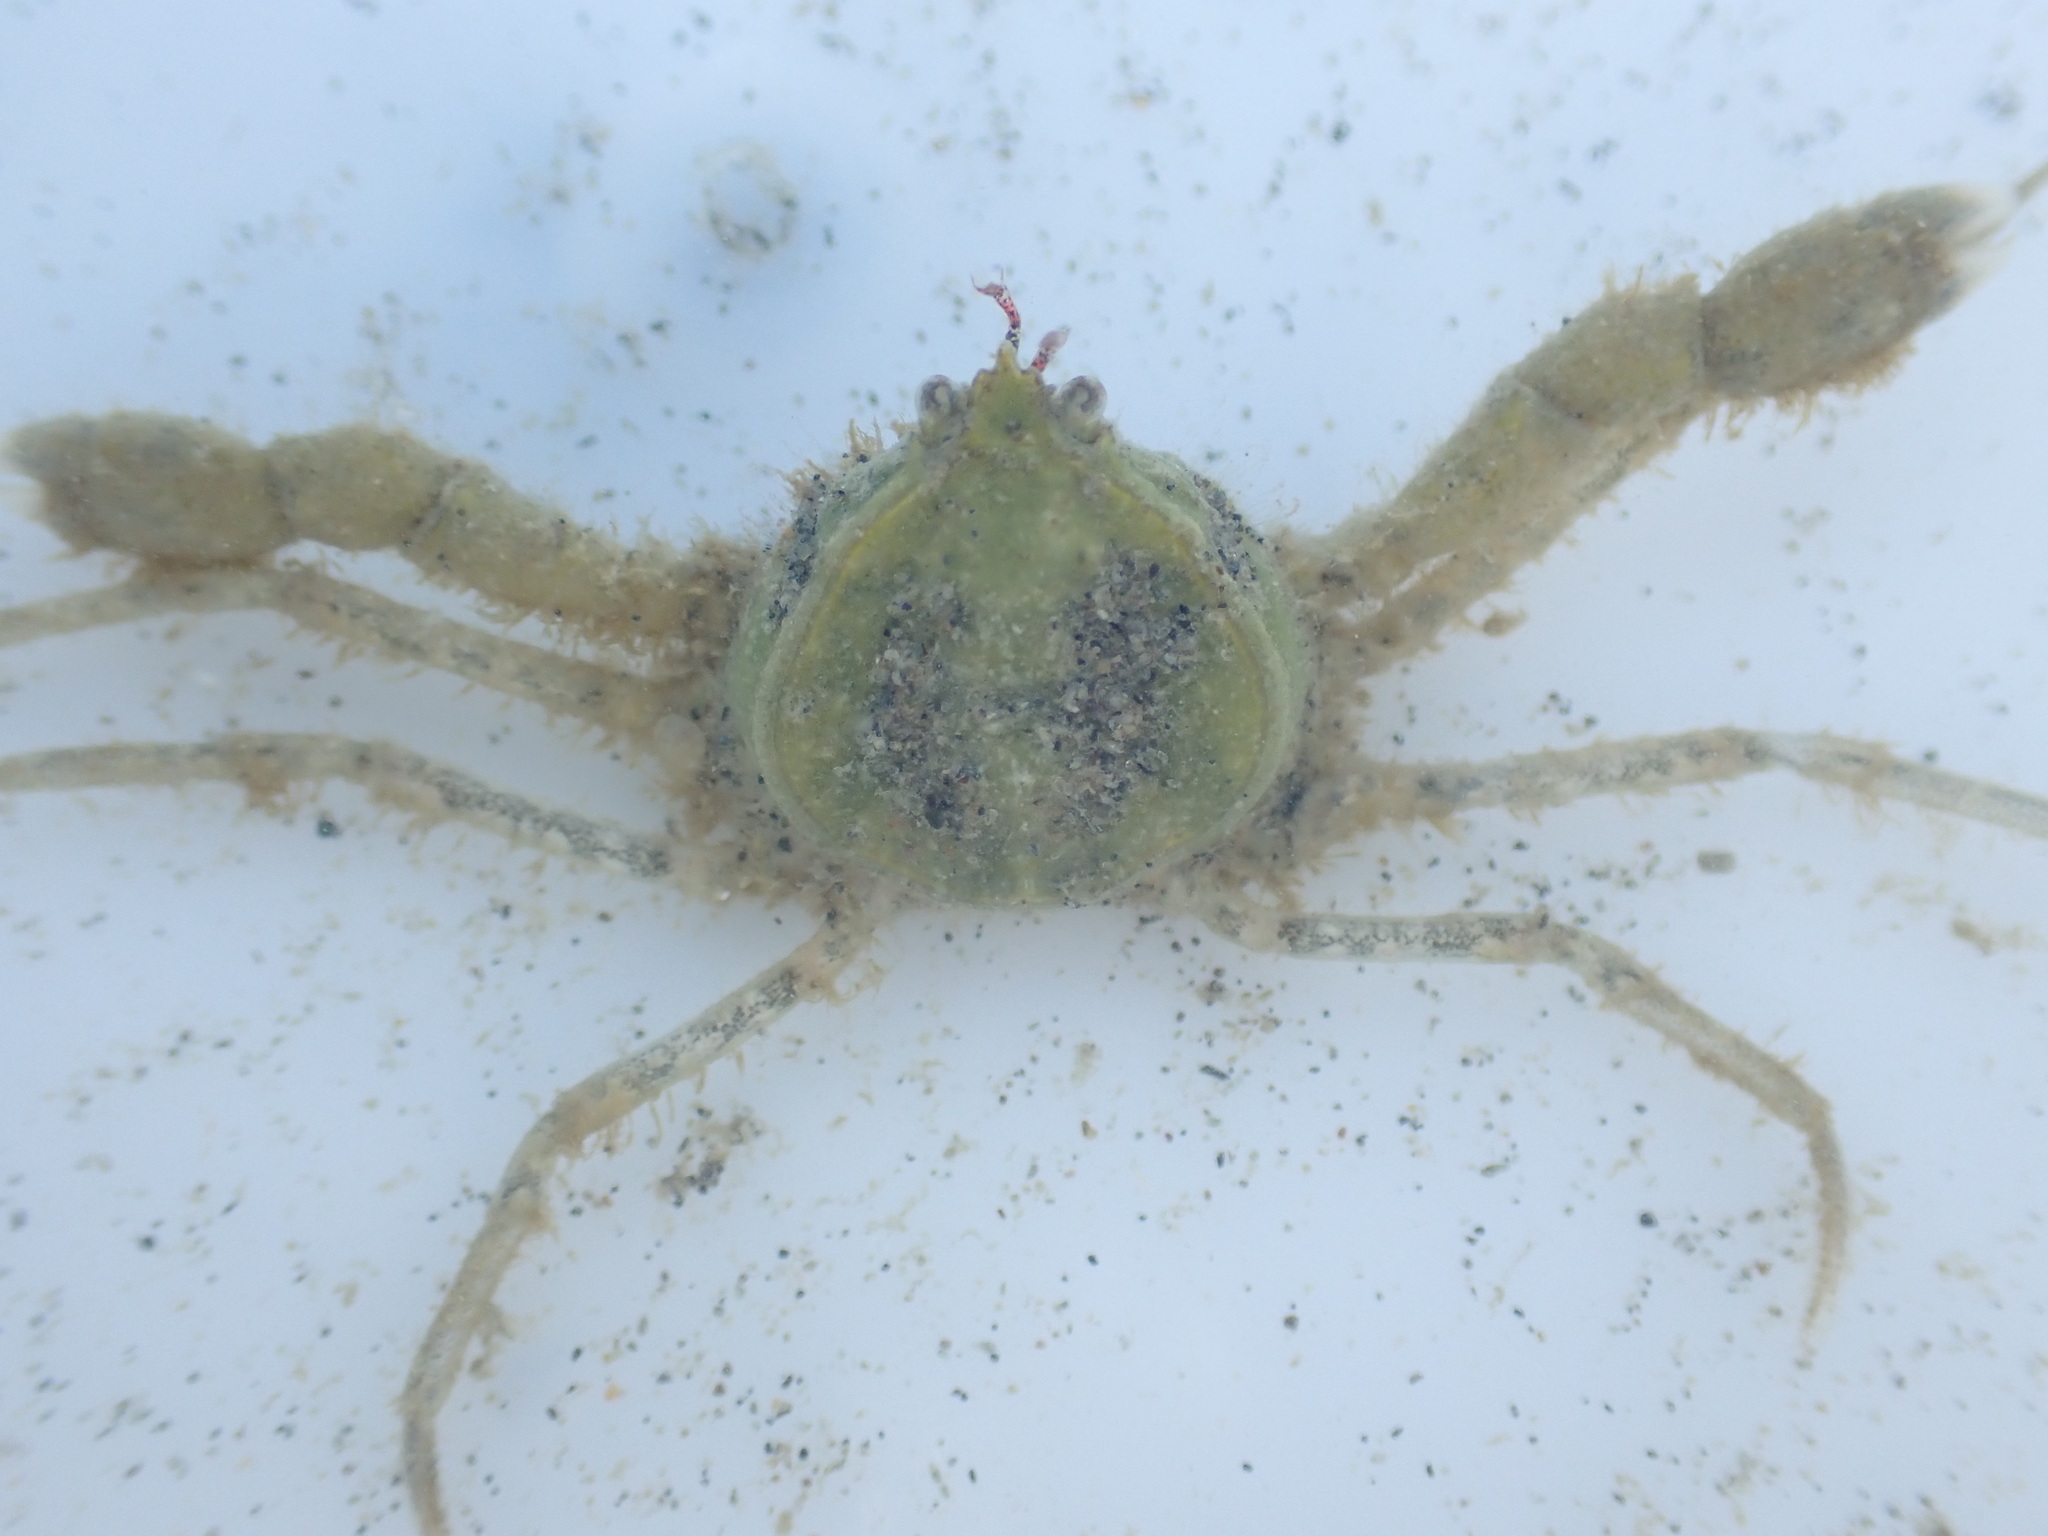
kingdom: Animalia
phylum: Arthropoda
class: Malacostraca
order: Decapoda
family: Hymenosomatidae
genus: Halicarcinus
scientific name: Halicarcinus whitei
